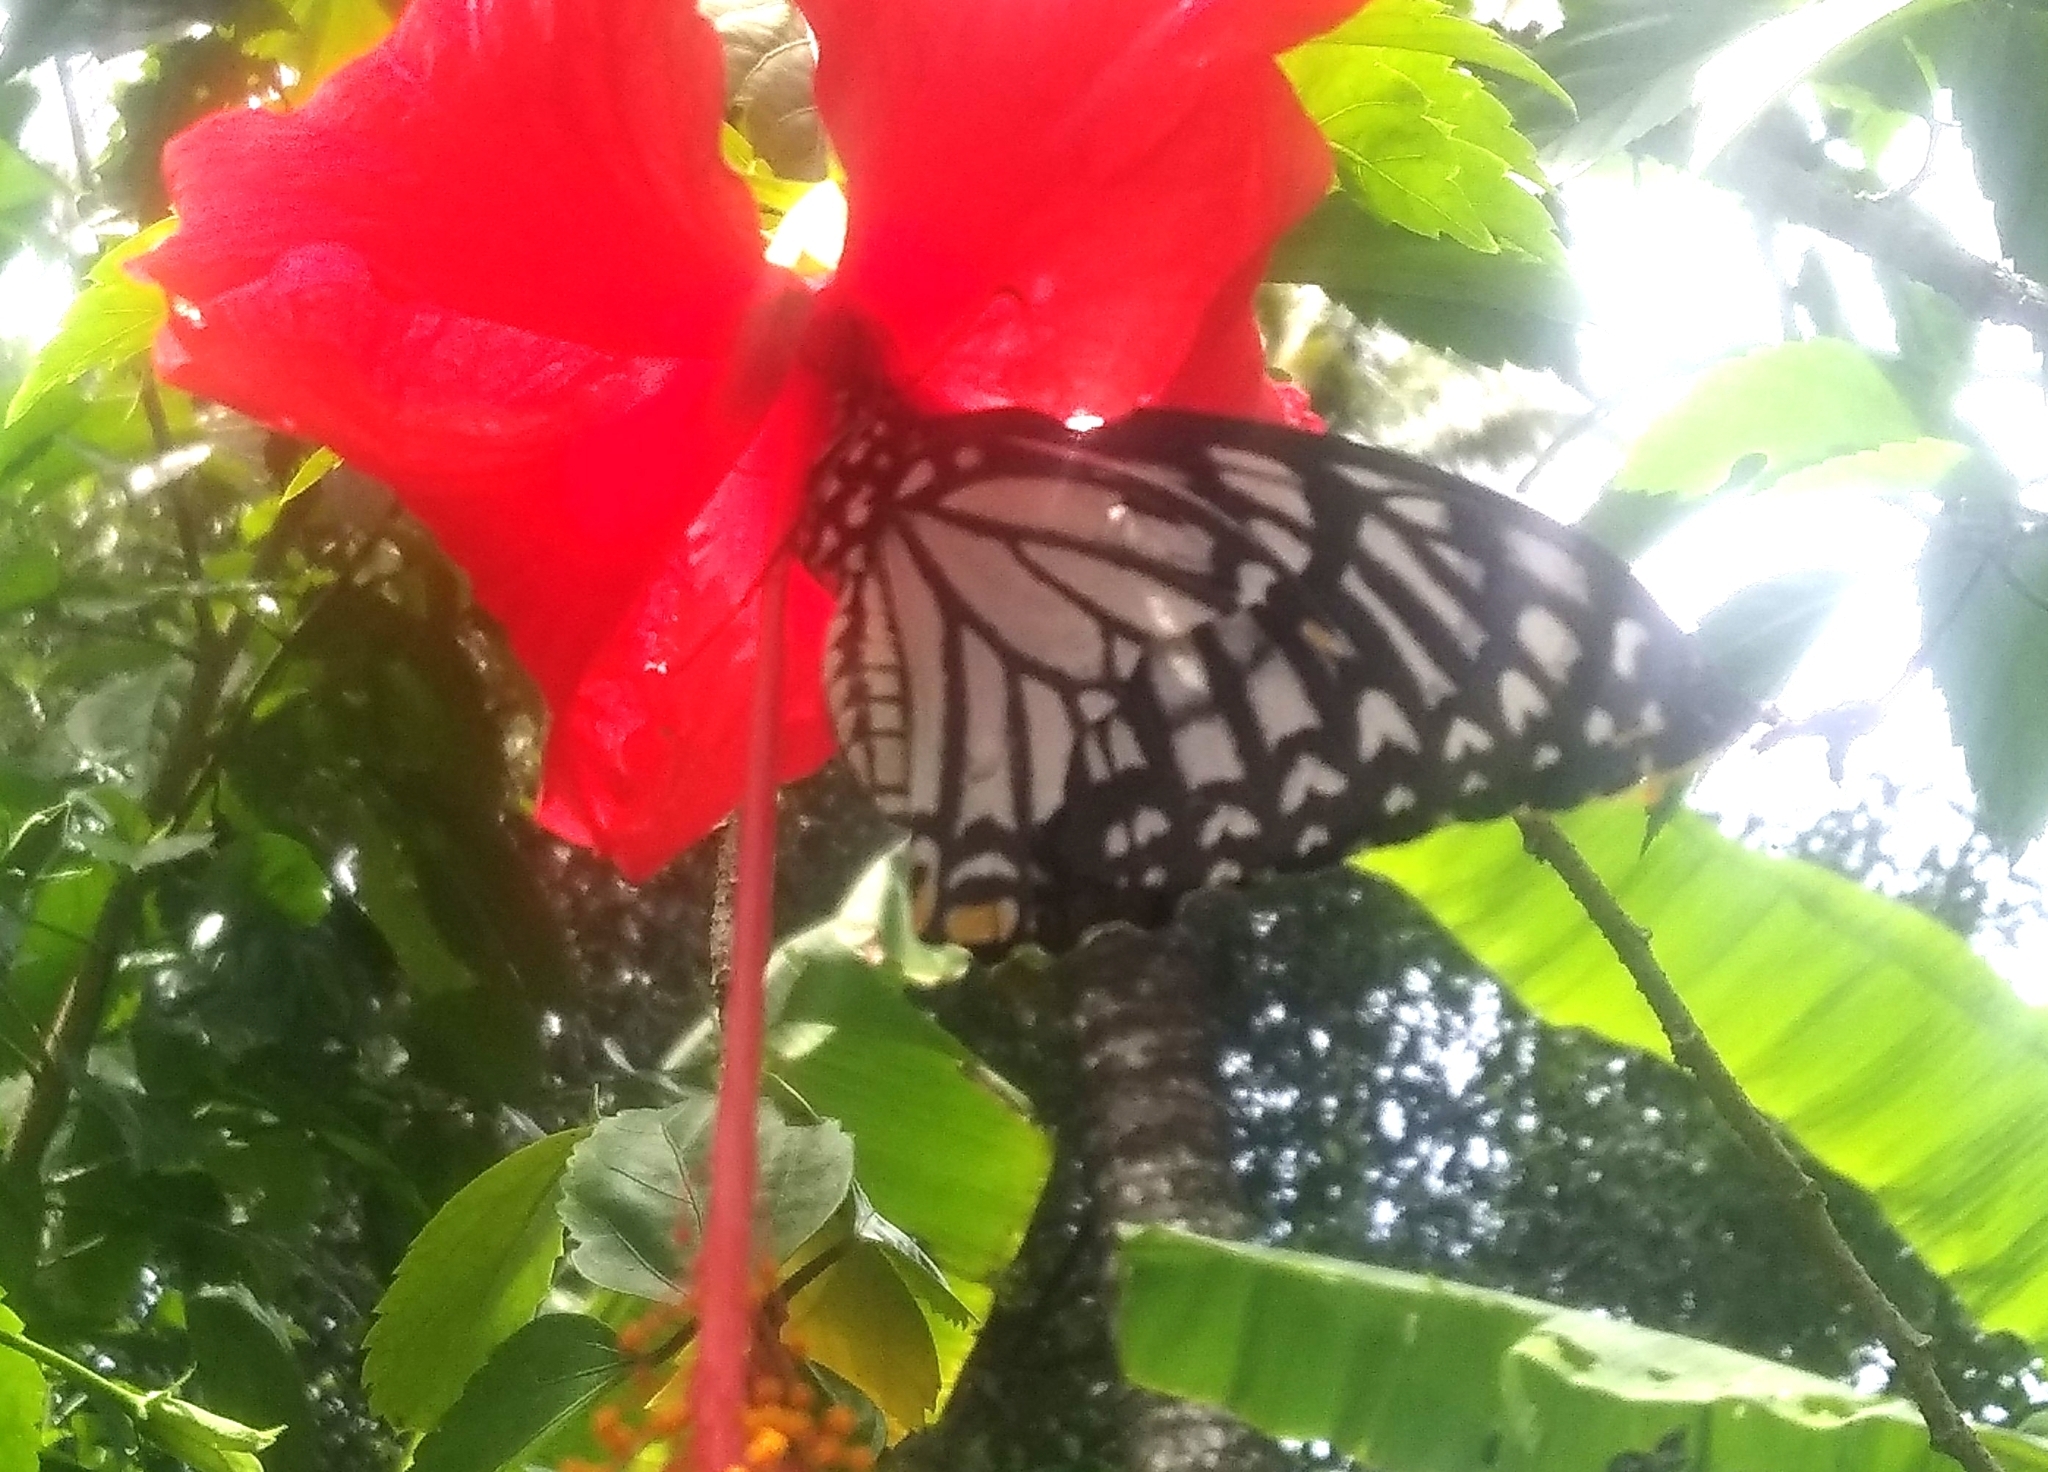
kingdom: Animalia
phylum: Arthropoda
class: Insecta
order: Lepidoptera
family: Papilionidae
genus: Chilasa
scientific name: Chilasa clytia
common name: Common mime
